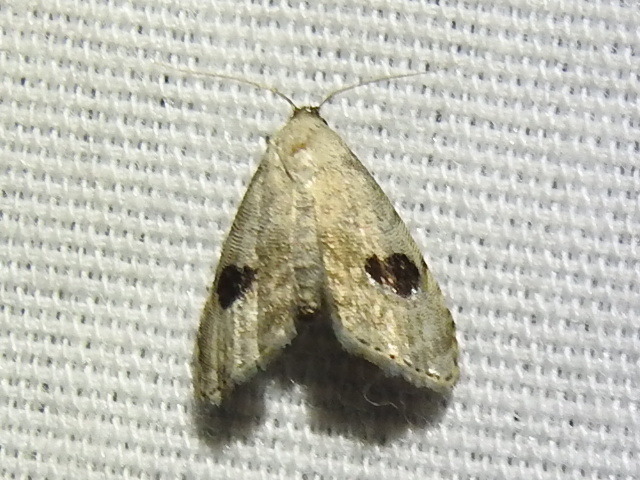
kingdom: Animalia
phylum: Arthropoda
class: Insecta
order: Lepidoptera
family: Noctuidae
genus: Abablemma
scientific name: Abablemma duomaculata
